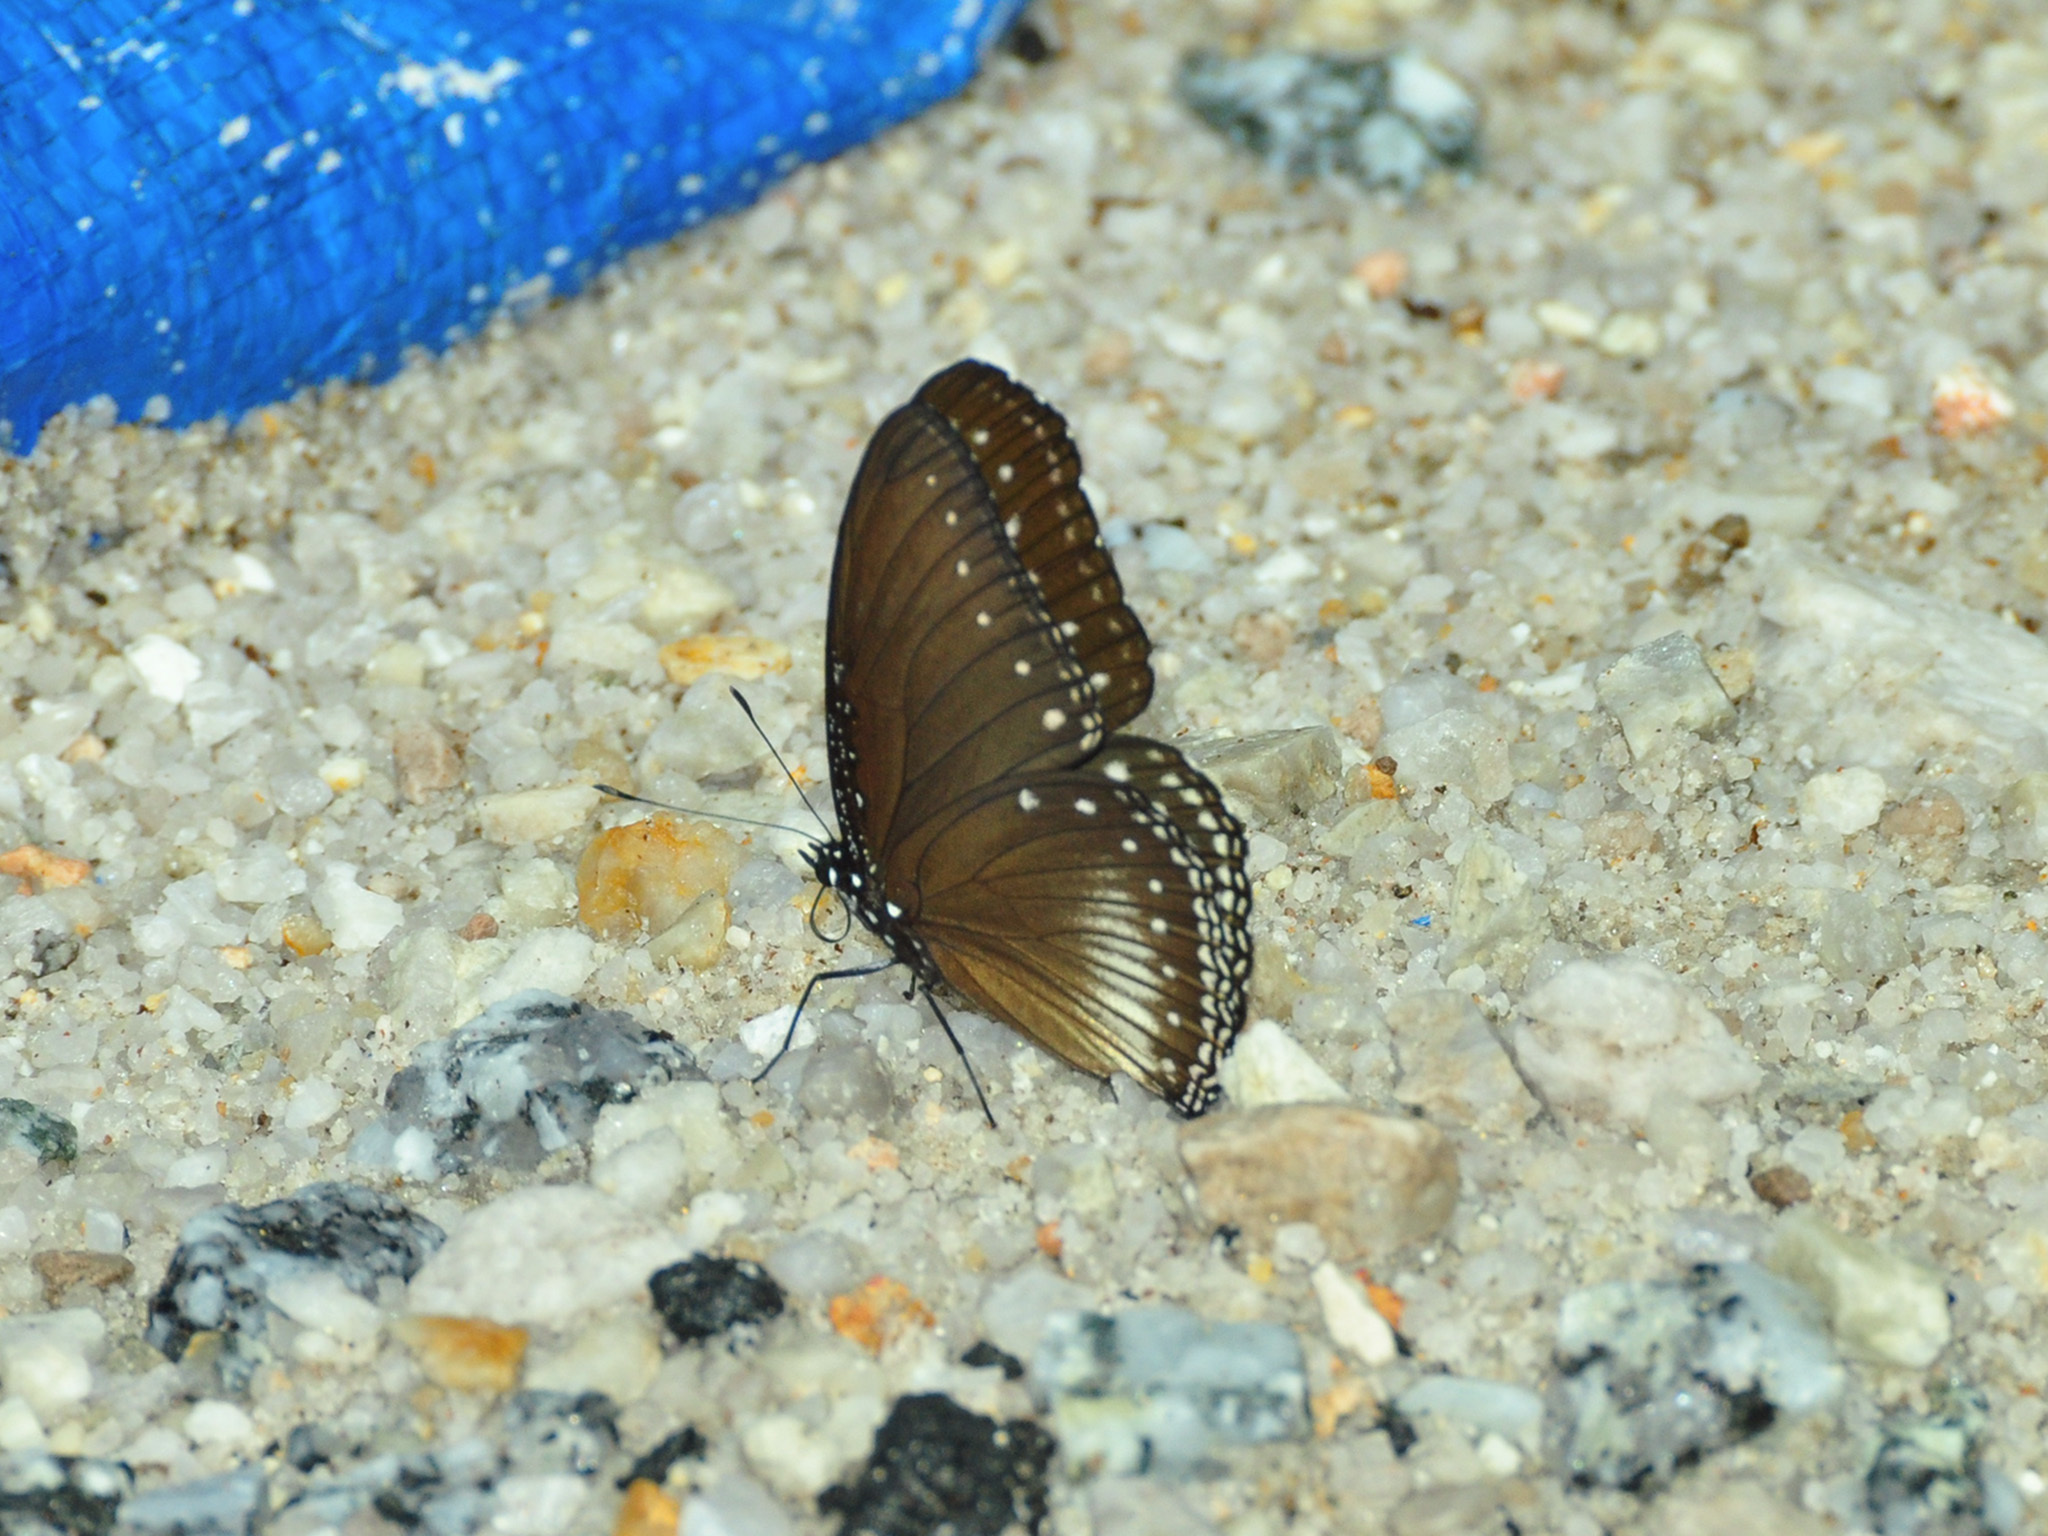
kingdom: Animalia
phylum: Arthropoda
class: Insecta
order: Lepidoptera
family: Nymphalidae
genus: Hypolimnas
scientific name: Hypolimnas anomala
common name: Malayan eggfly
